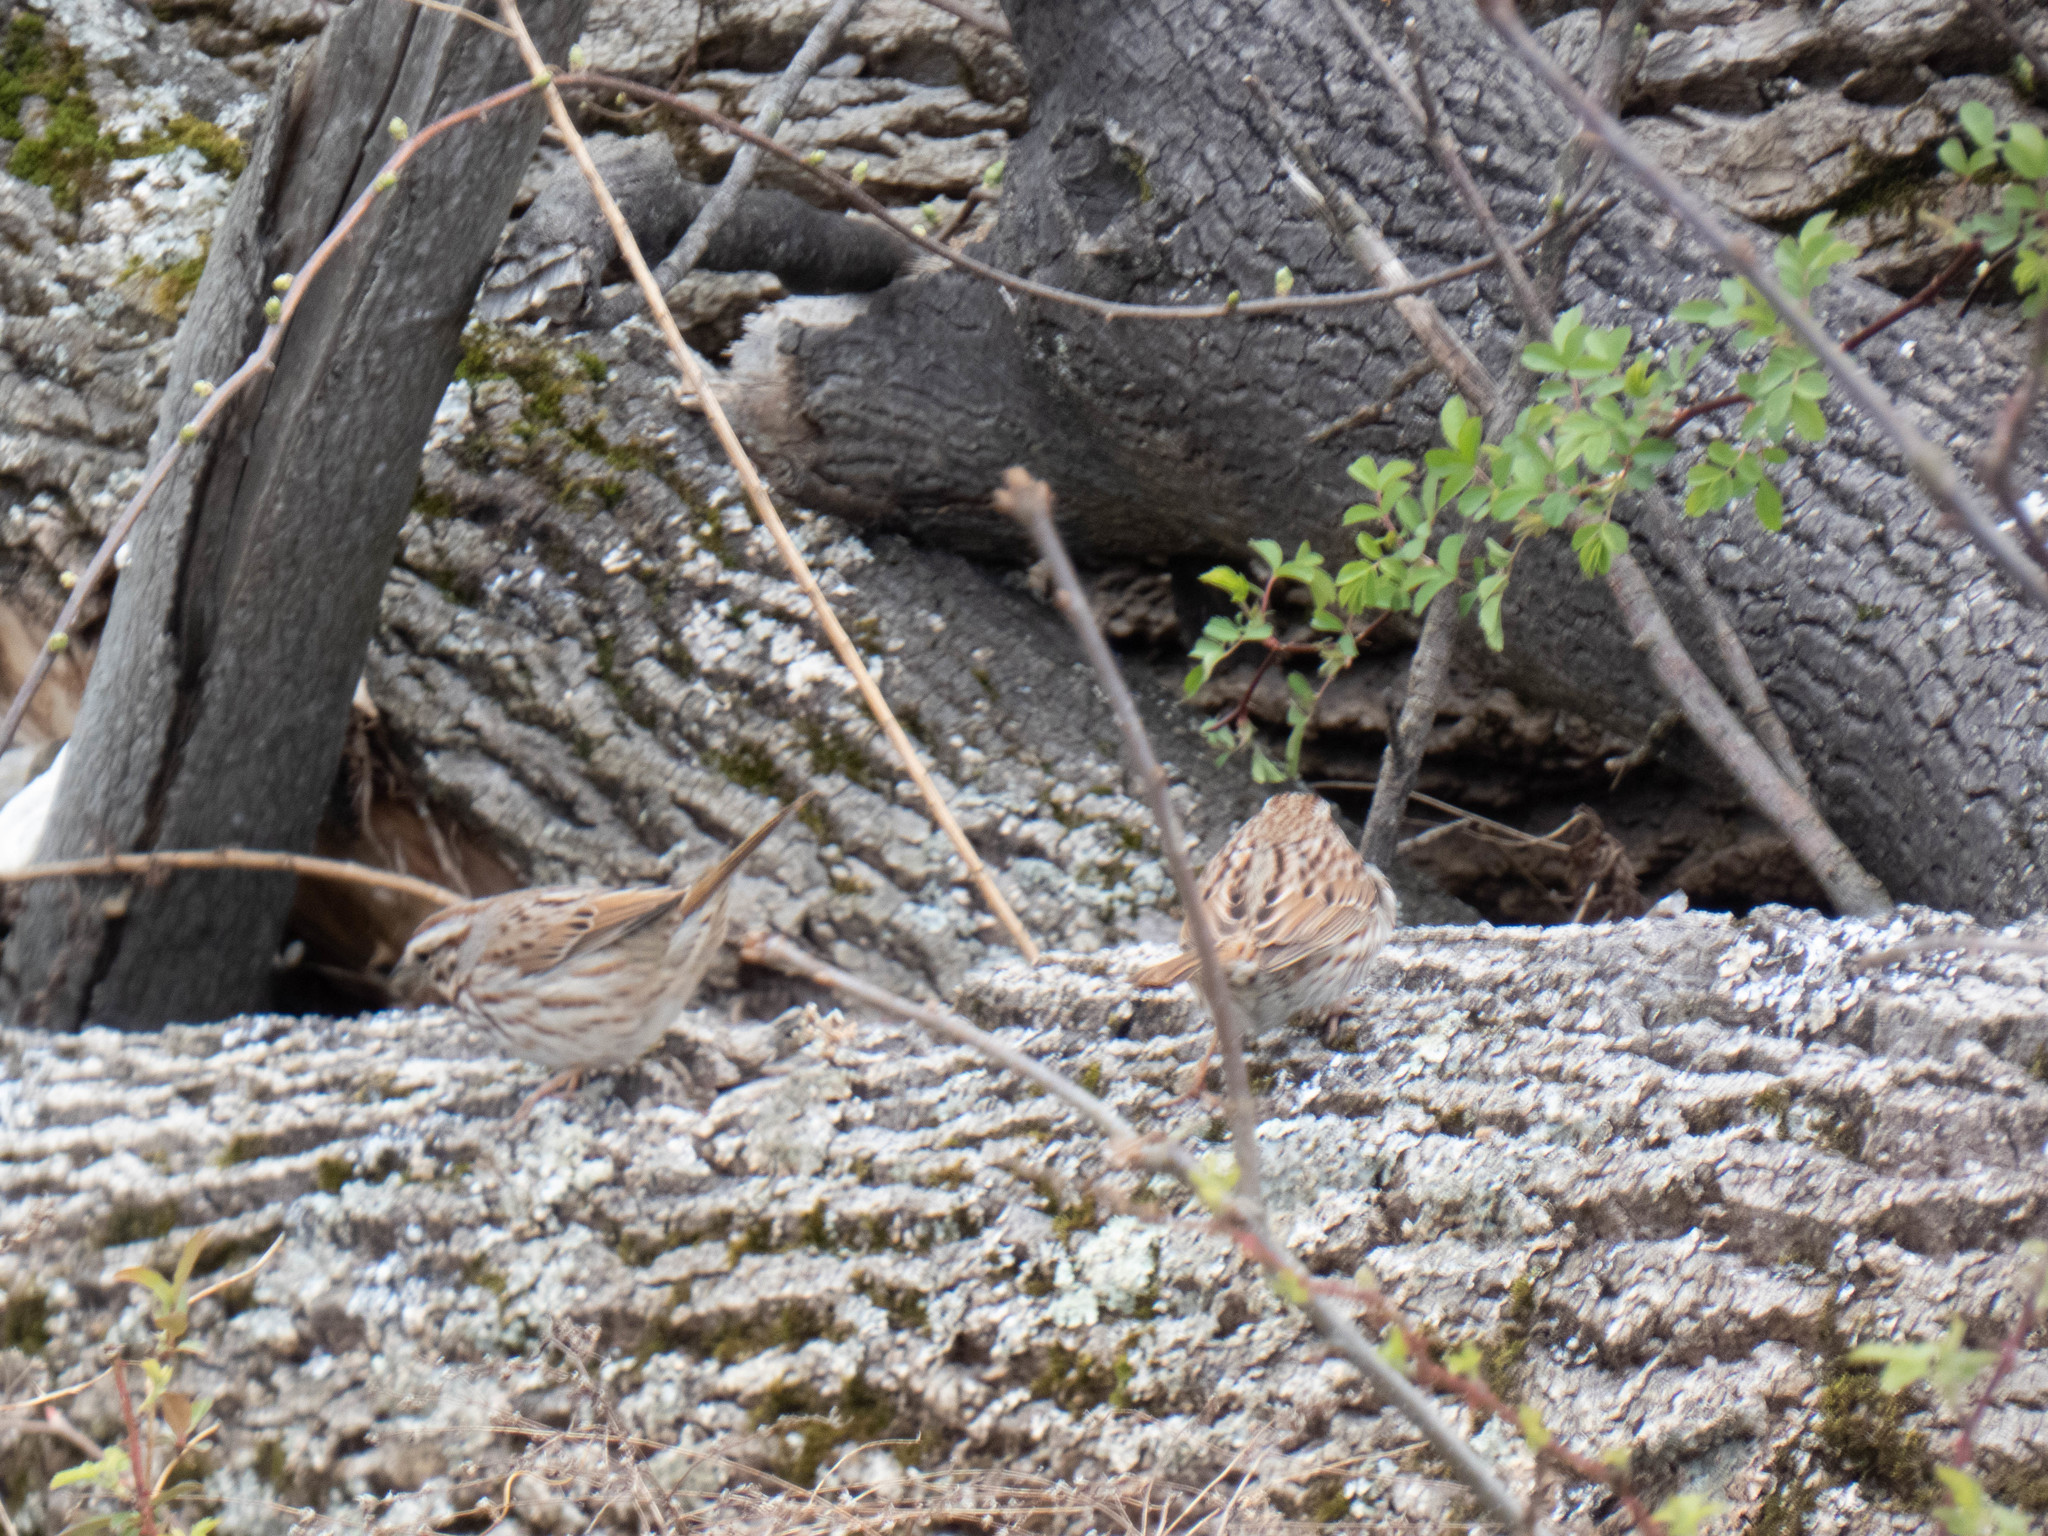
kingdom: Animalia
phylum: Chordata
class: Aves
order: Passeriformes
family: Passerellidae
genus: Melospiza
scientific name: Melospiza melodia
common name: Song sparrow
